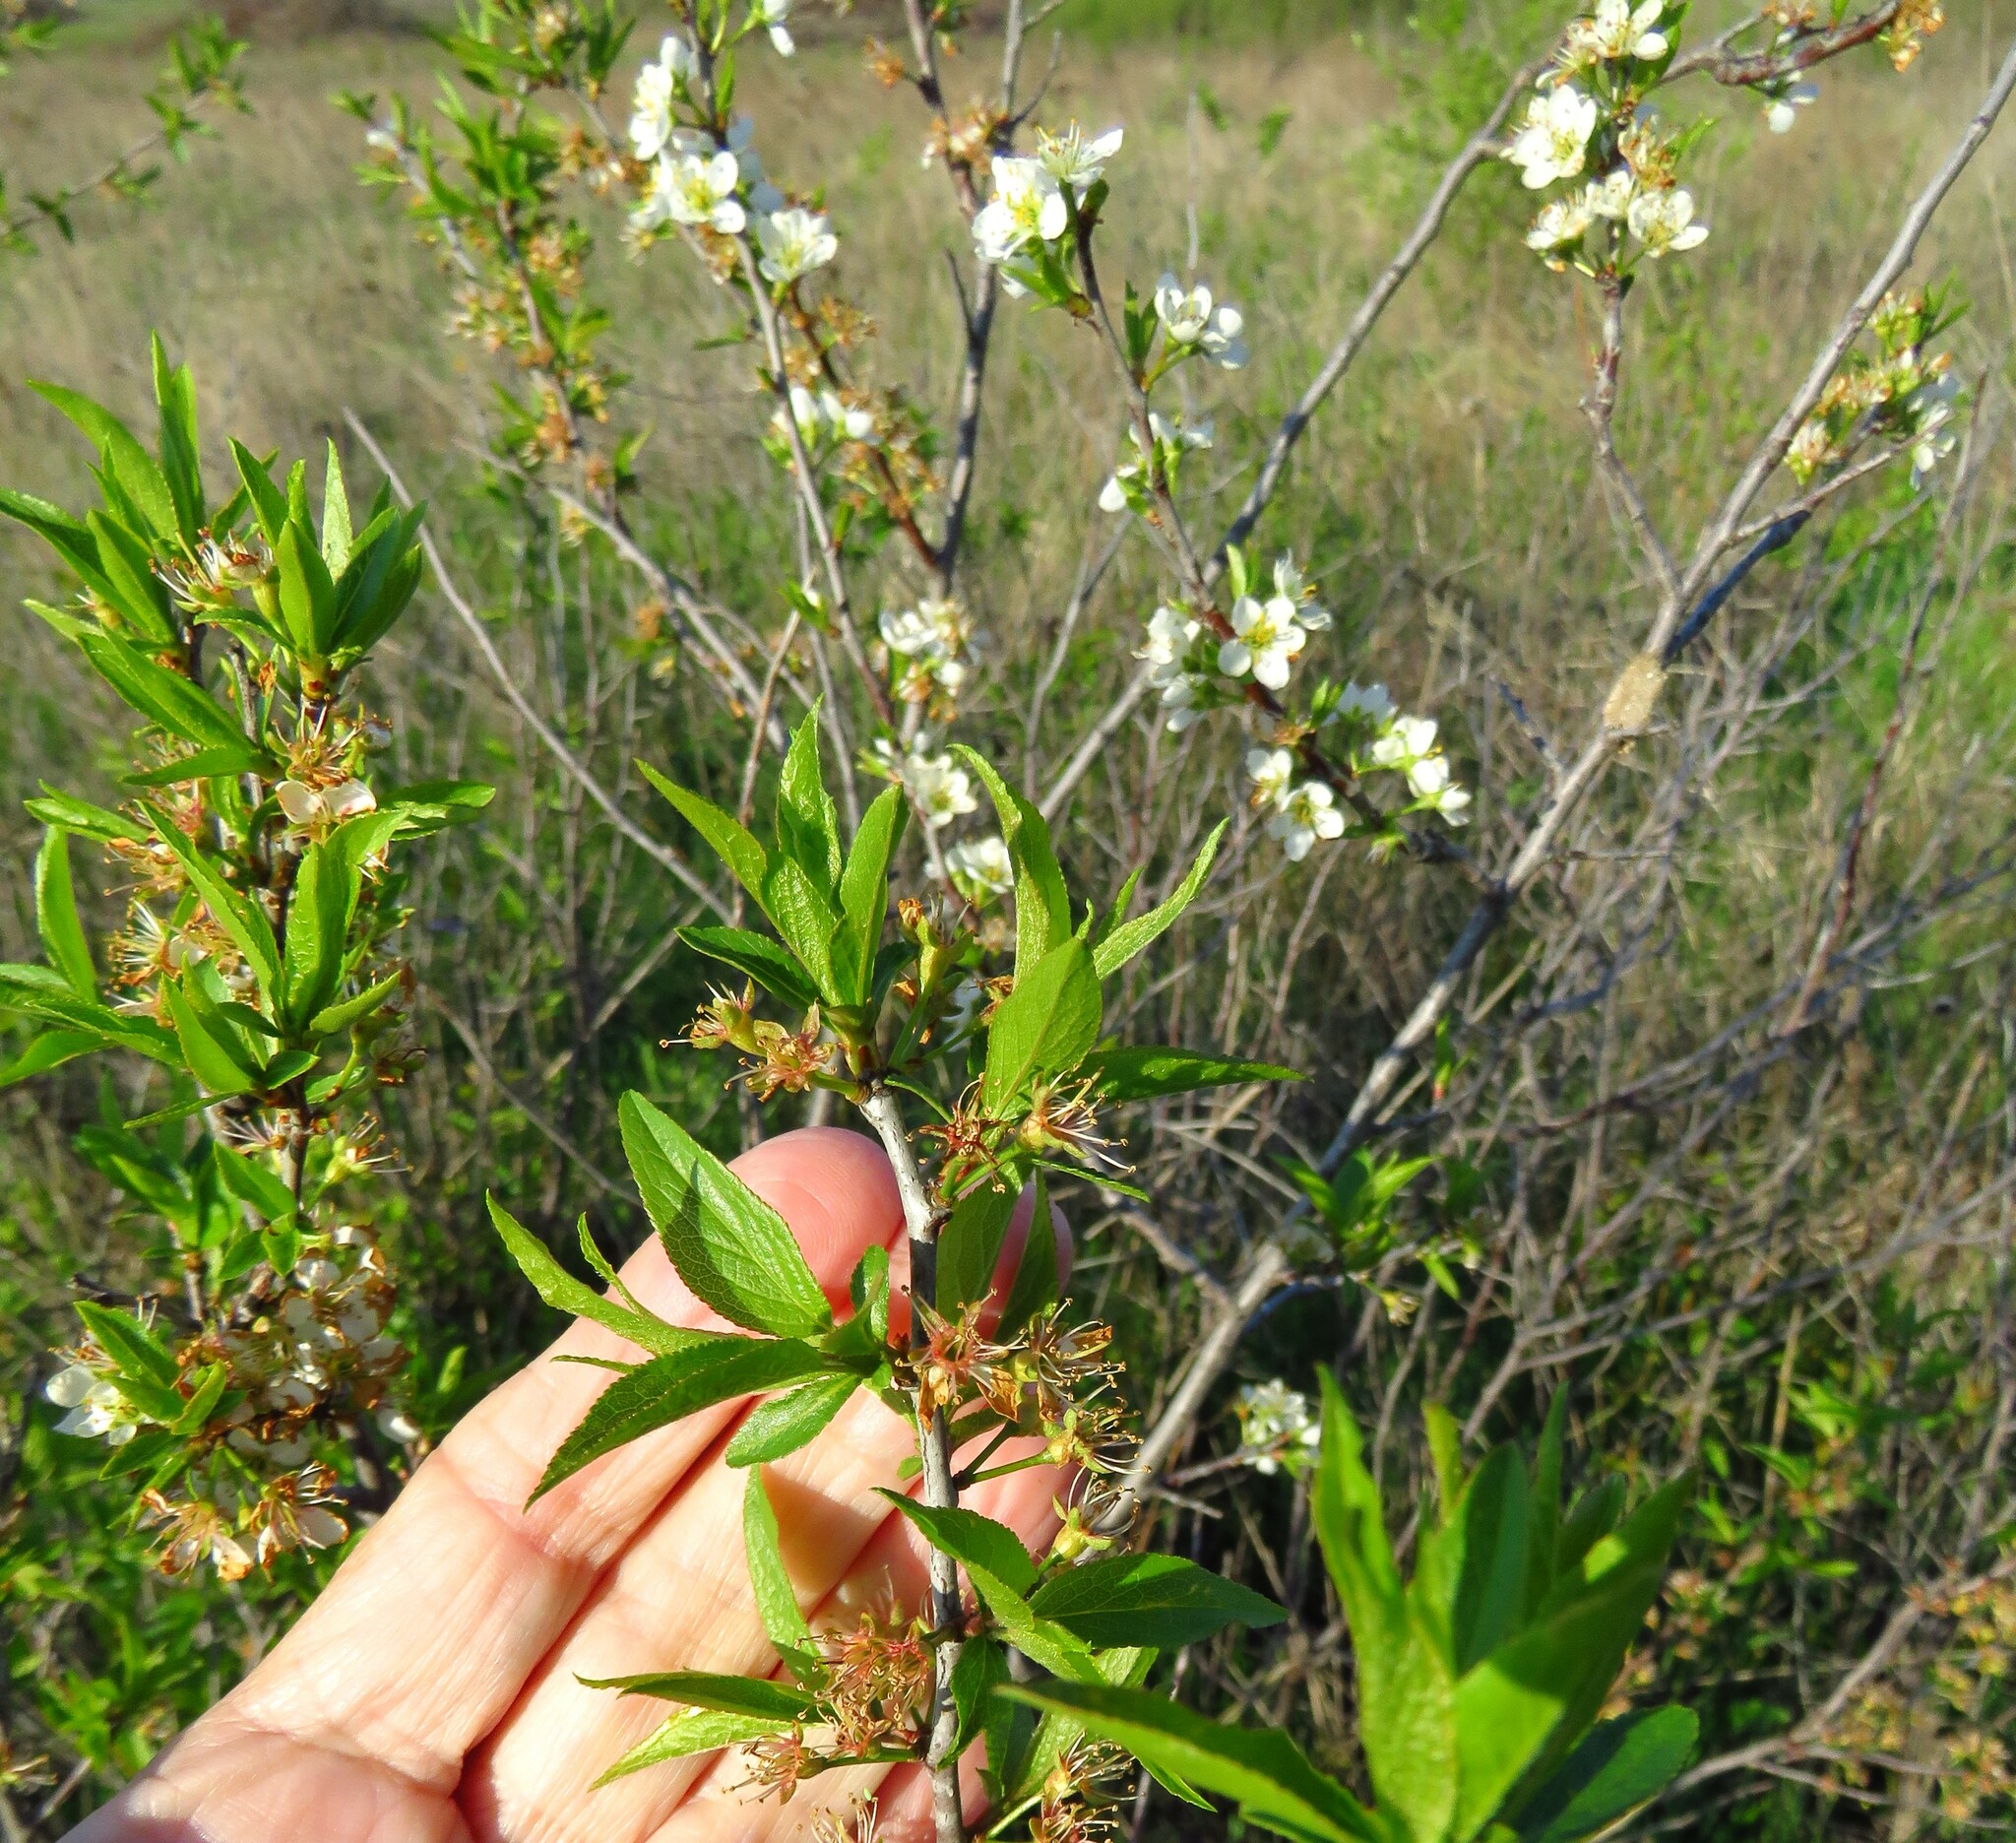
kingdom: Plantae
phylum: Tracheophyta
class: Magnoliopsida
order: Rosales
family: Rosaceae
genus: Prunus
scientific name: Prunus rivularis
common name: Creek plum
